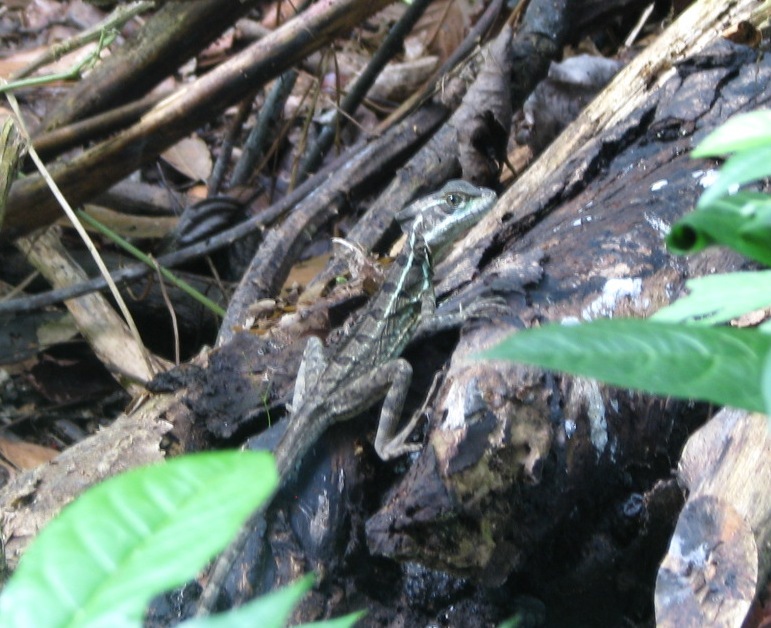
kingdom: Animalia
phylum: Chordata
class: Squamata
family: Corytophanidae
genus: Basiliscus
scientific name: Basiliscus basiliscus
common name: Common basilisk
